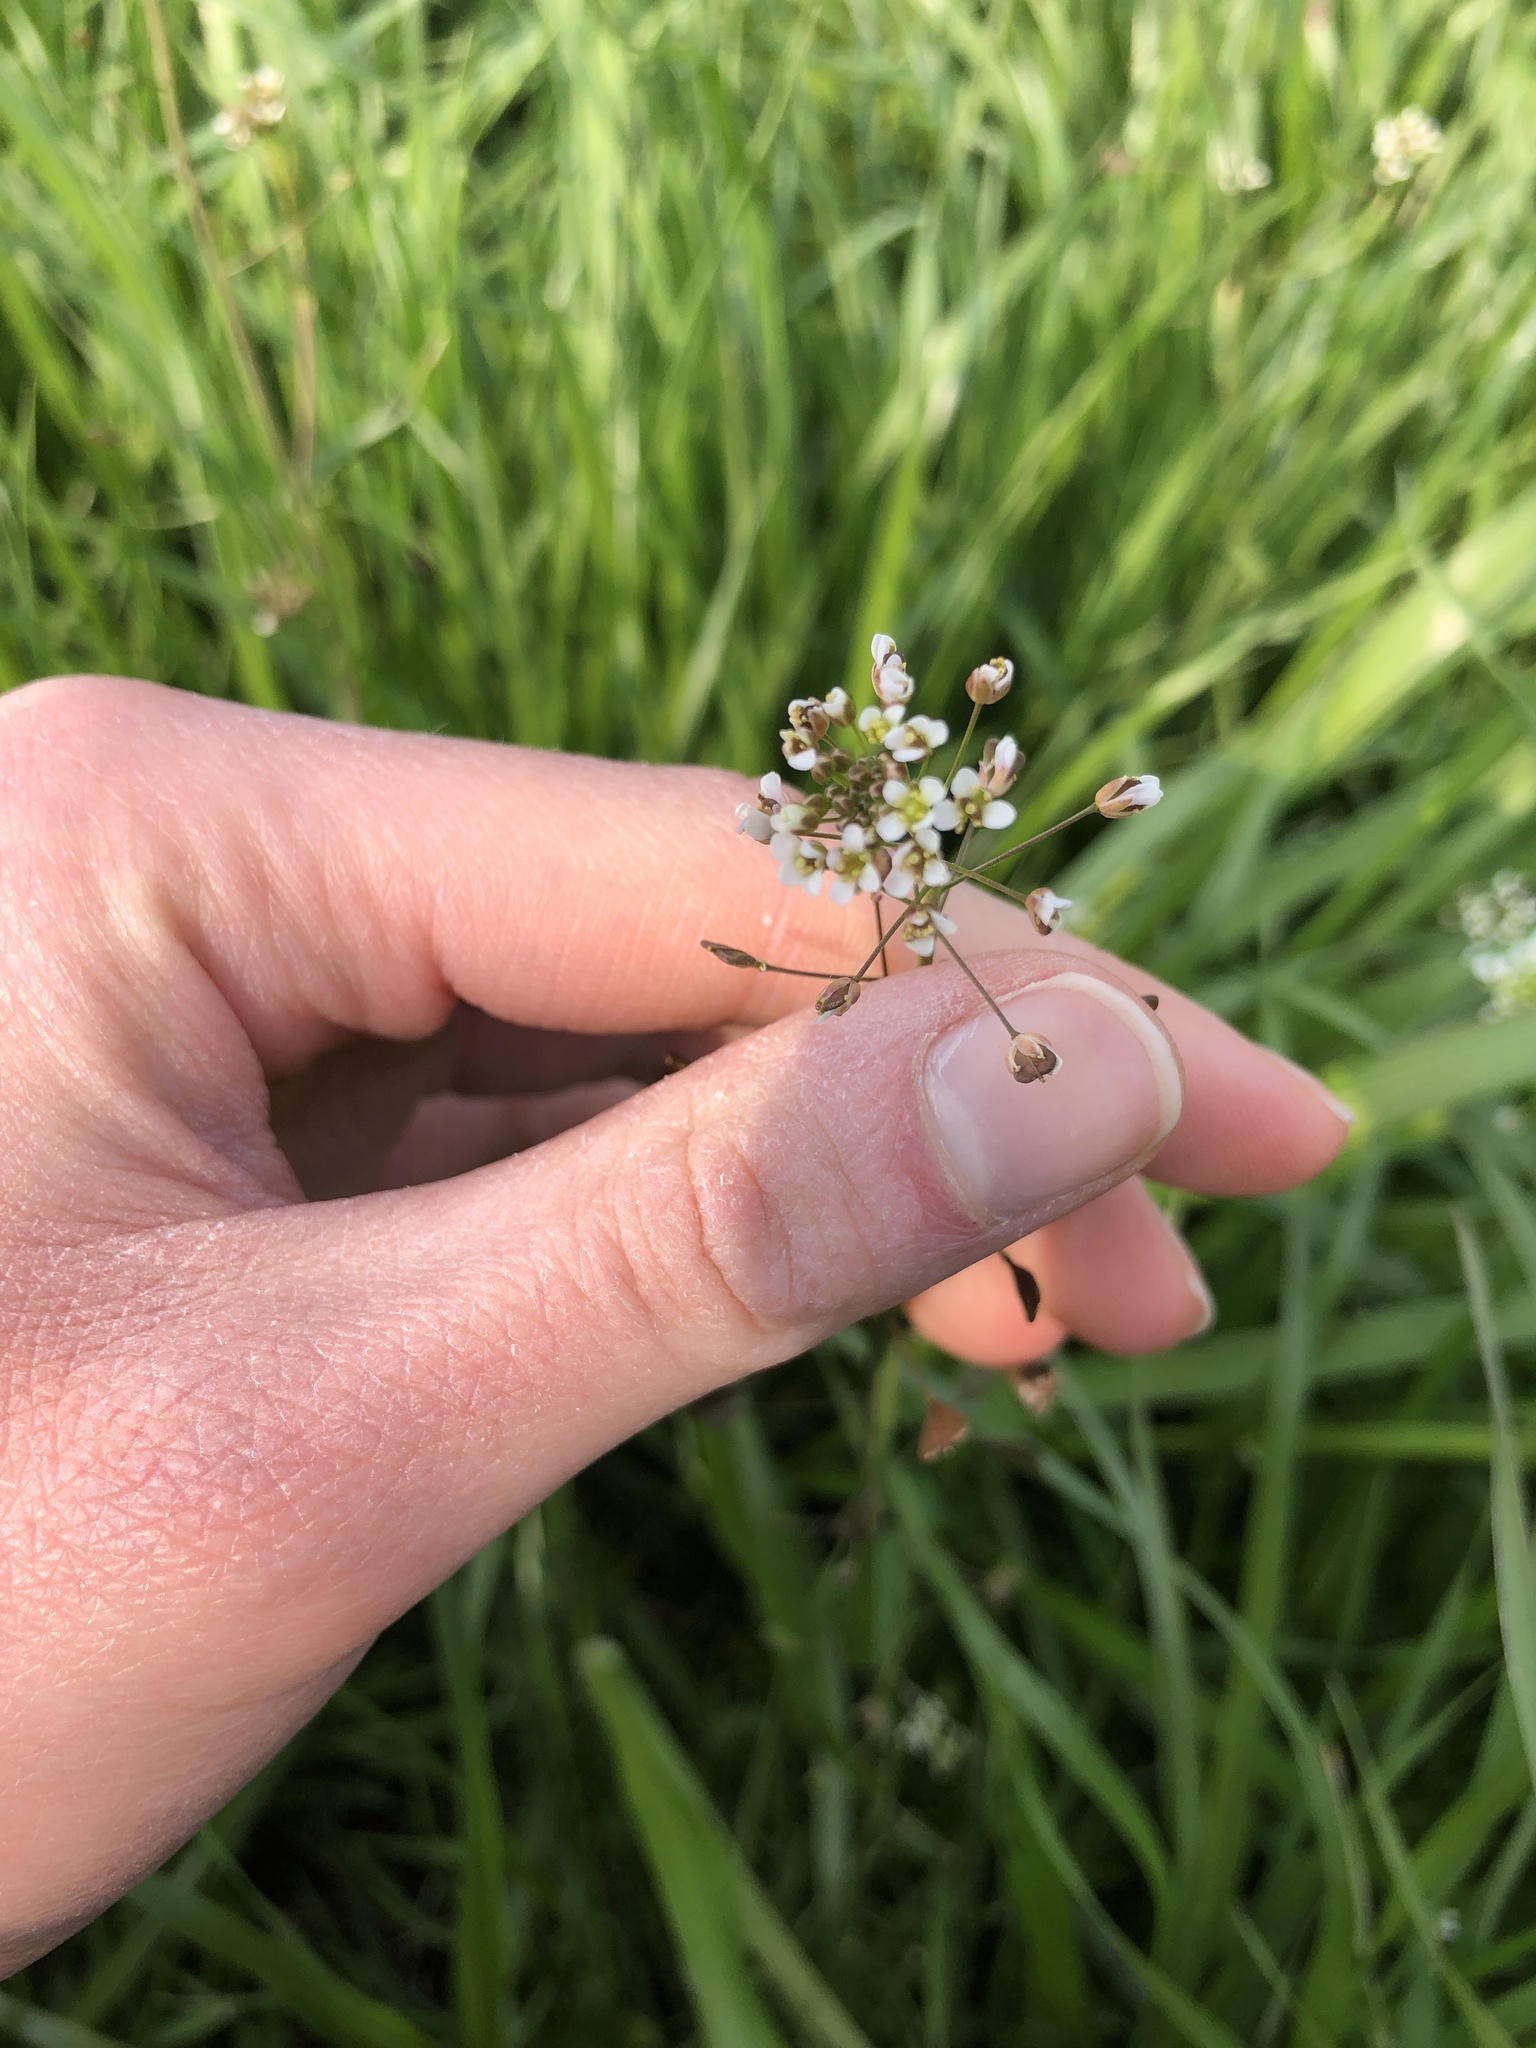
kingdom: Plantae
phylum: Tracheophyta
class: Magnoliopsida
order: Brassicales
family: Brassicaceae
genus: Capsella
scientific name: Capsella bursa-pastoris
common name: Shepherd's purse
